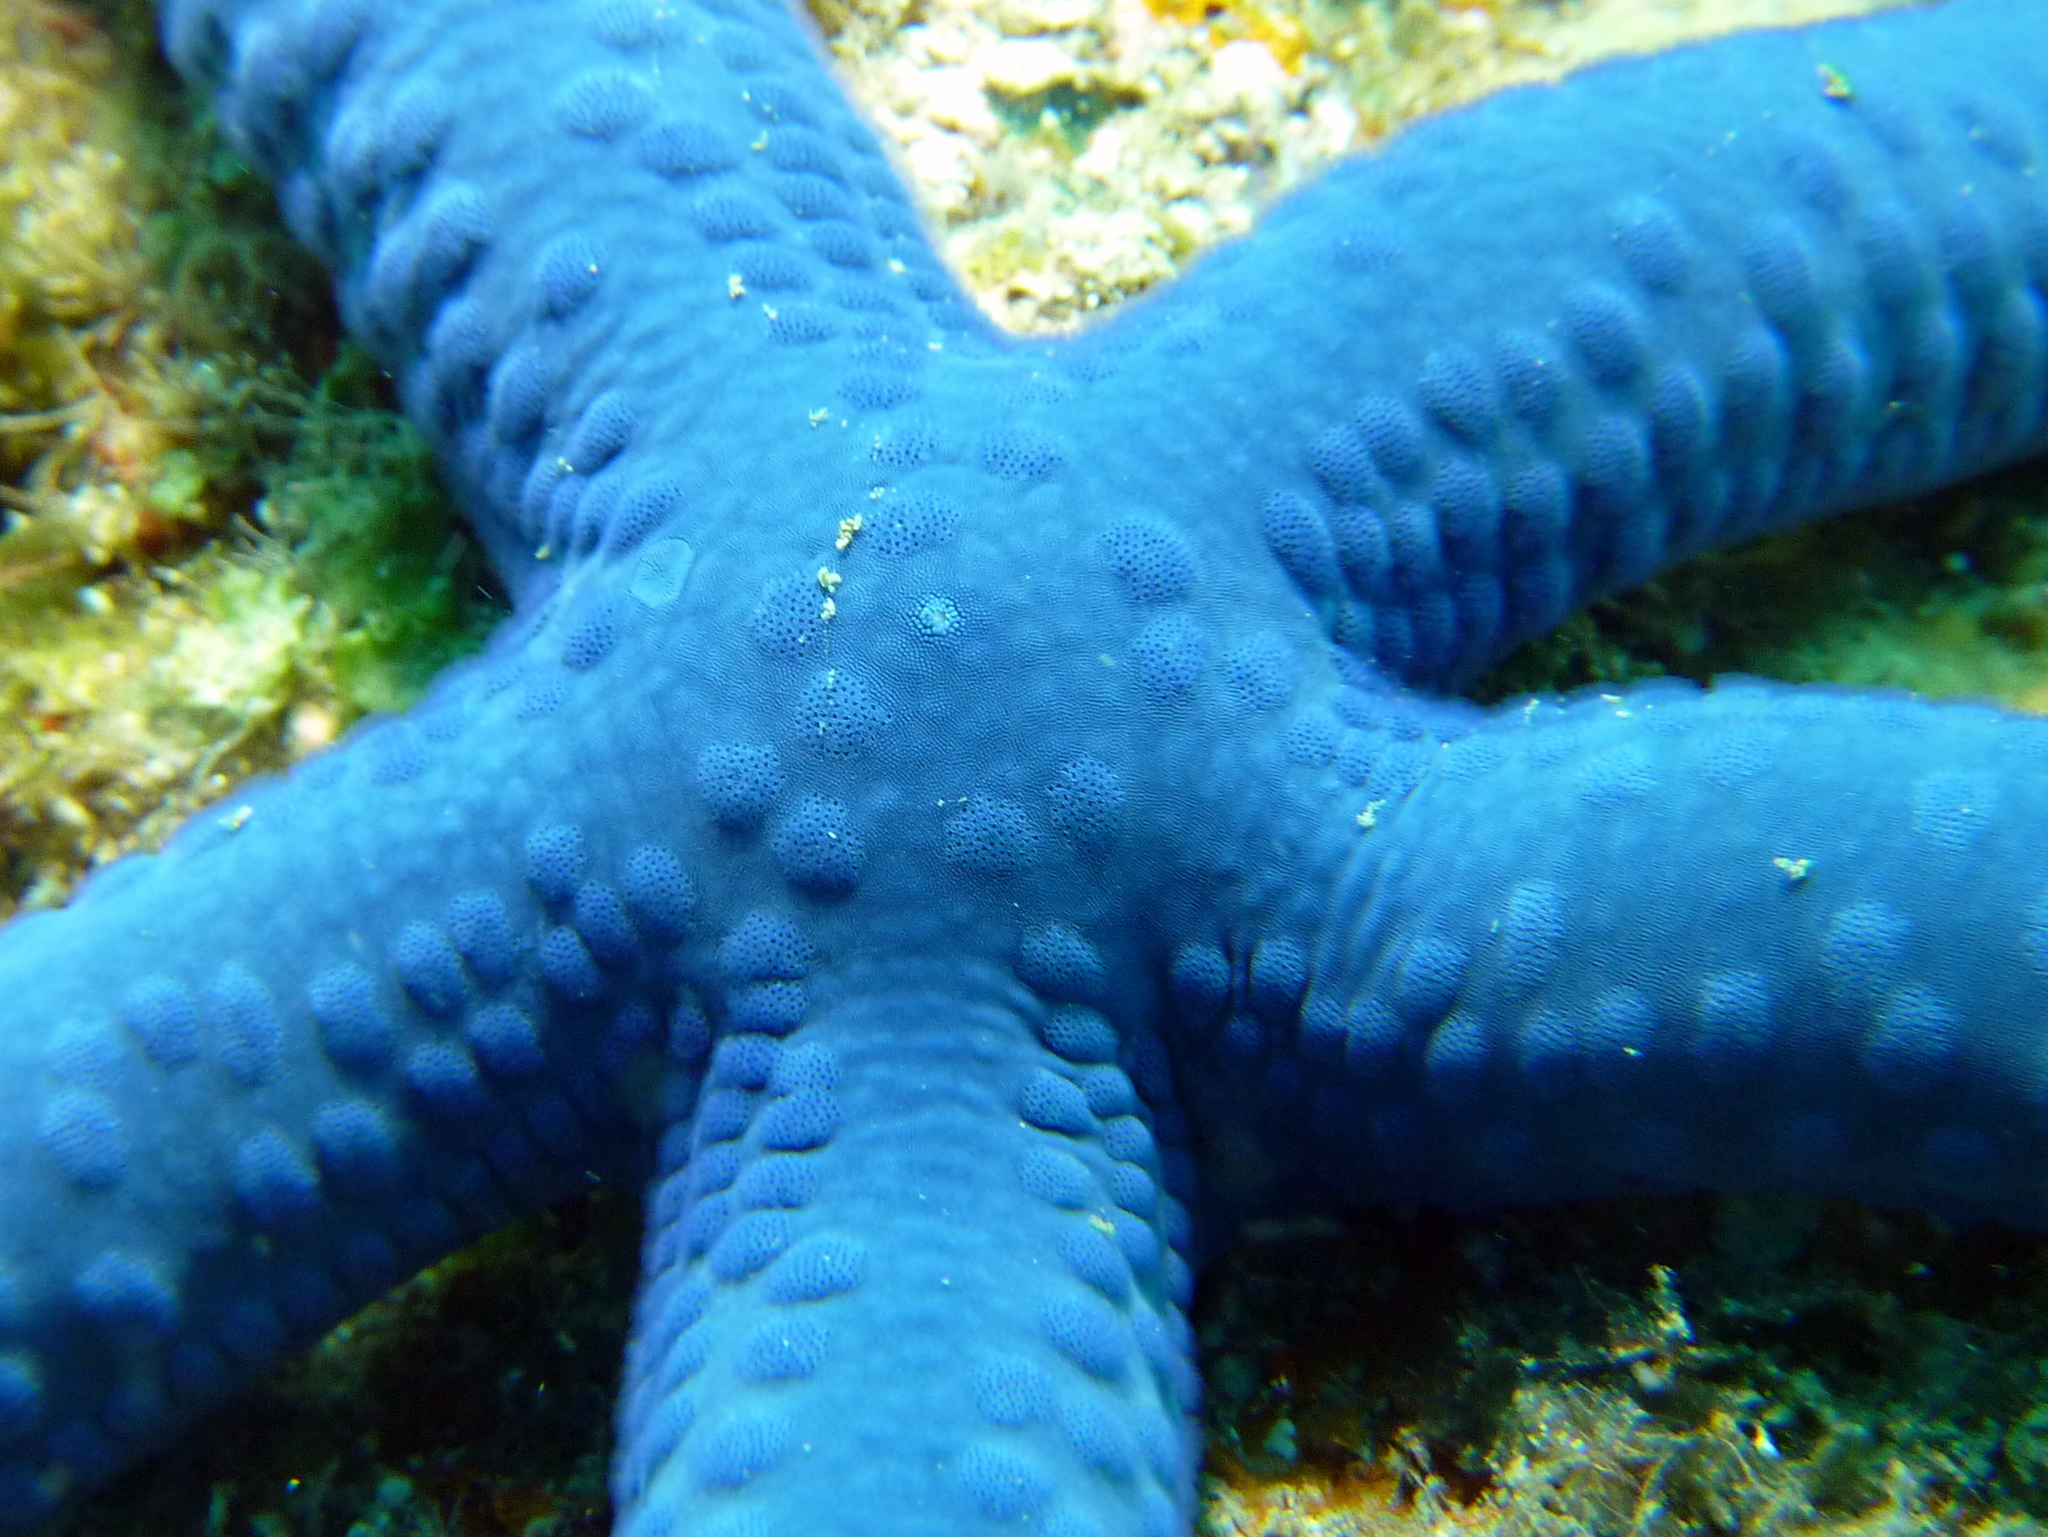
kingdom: Animalia
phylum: Echinodermata
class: Asteroidea
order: Valvatida
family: Ophidiasteridae
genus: Linckia
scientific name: Linckia laevigata
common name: Azure sea star
